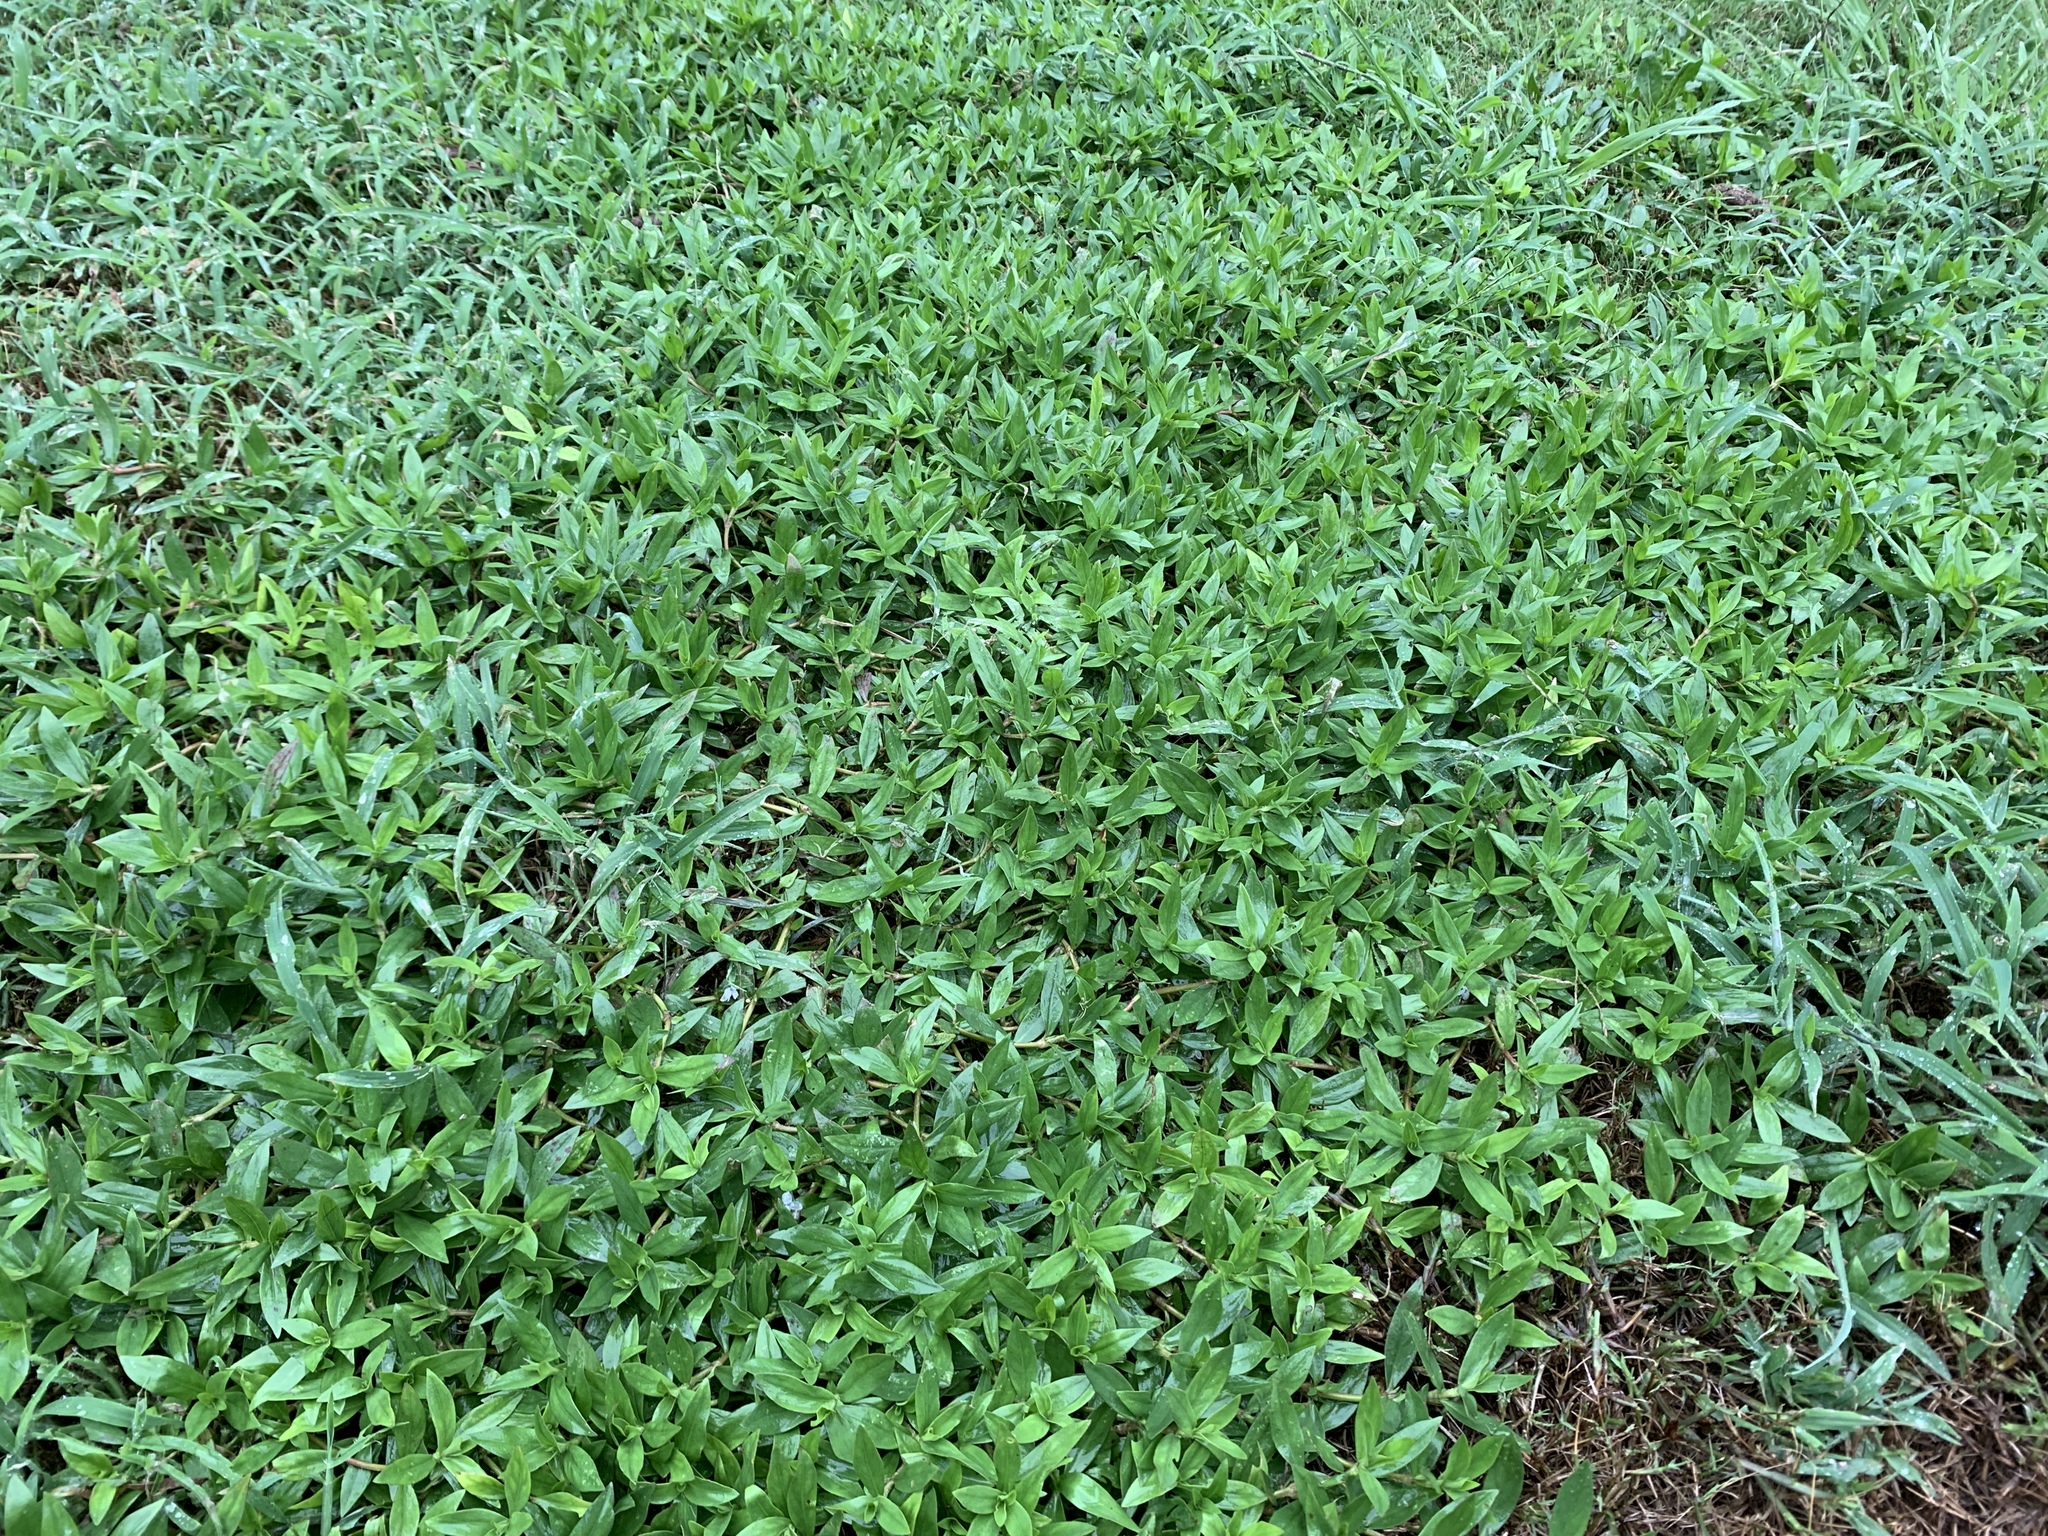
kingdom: Plantae
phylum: Tracheophyta
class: Magnoliopsida
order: Gentianales
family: Rubiaceae
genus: Diodia
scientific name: Diodia virginiana
